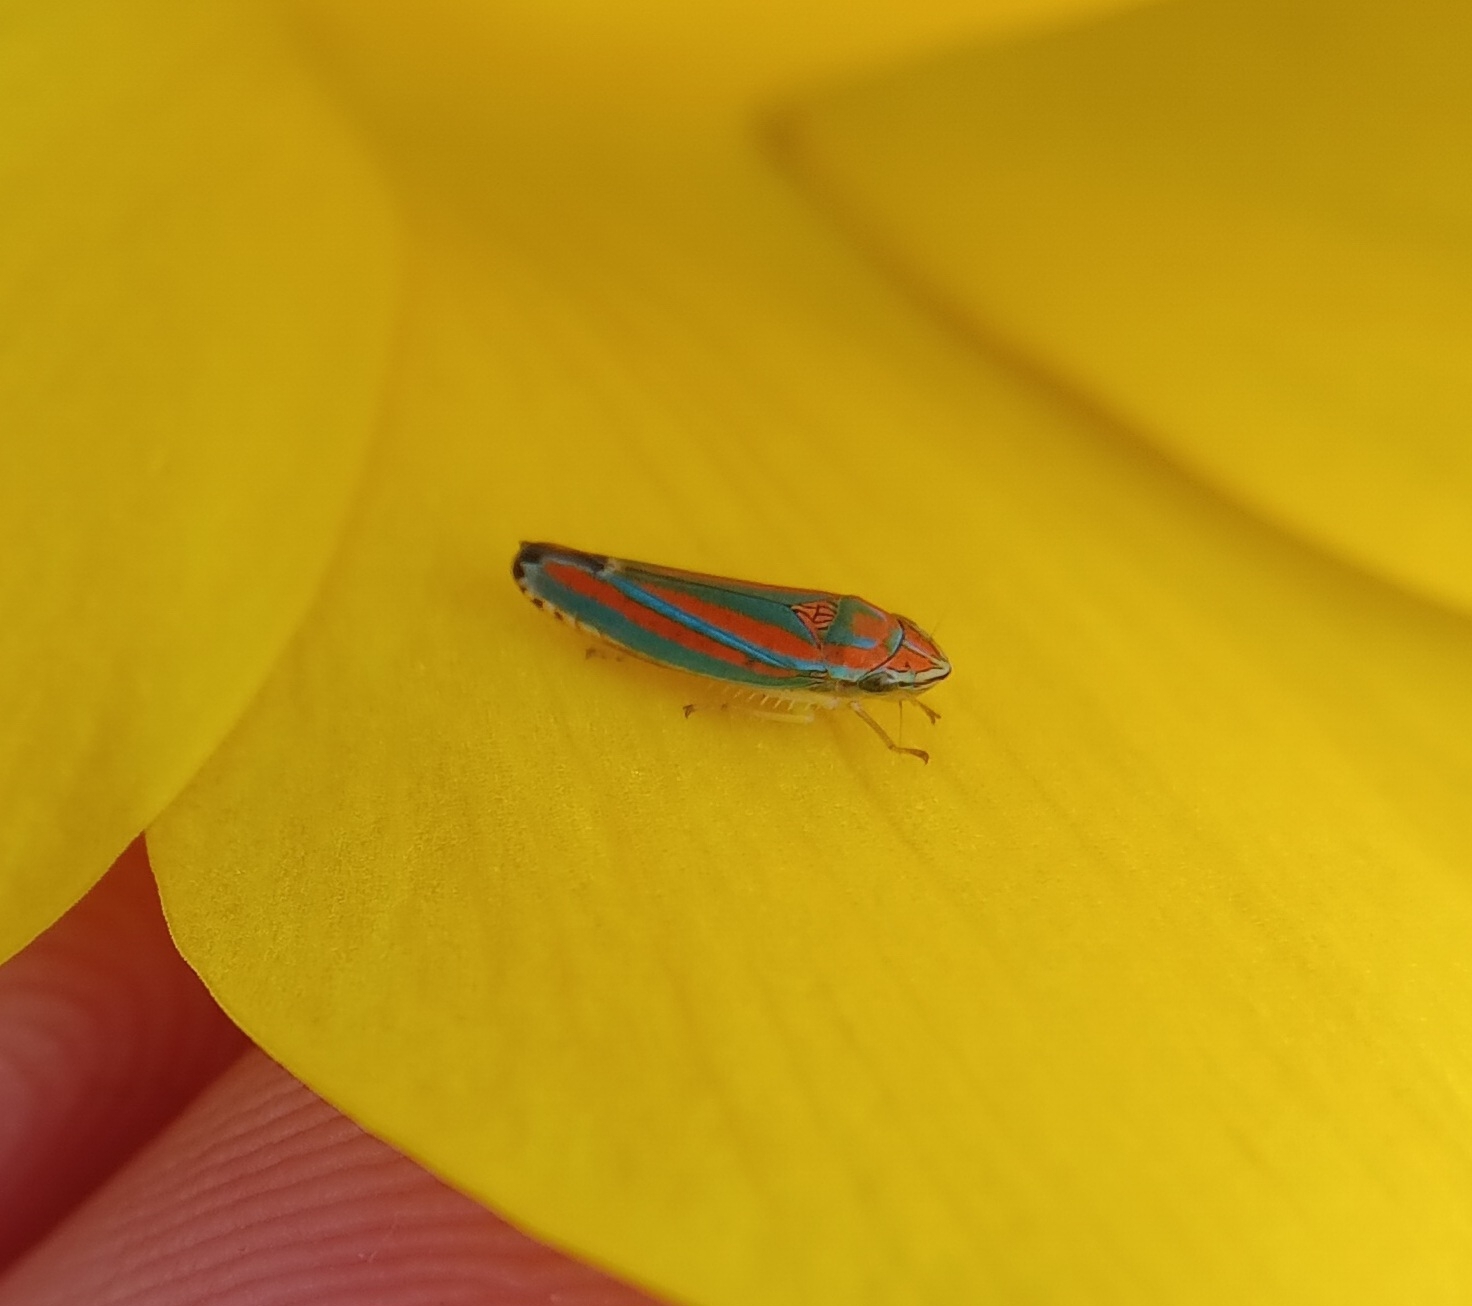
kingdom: Animalia
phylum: Arthropoda
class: Insecta
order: Hemiptera
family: Cicadellidae
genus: Graphocephala
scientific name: Graphocephala versuta
